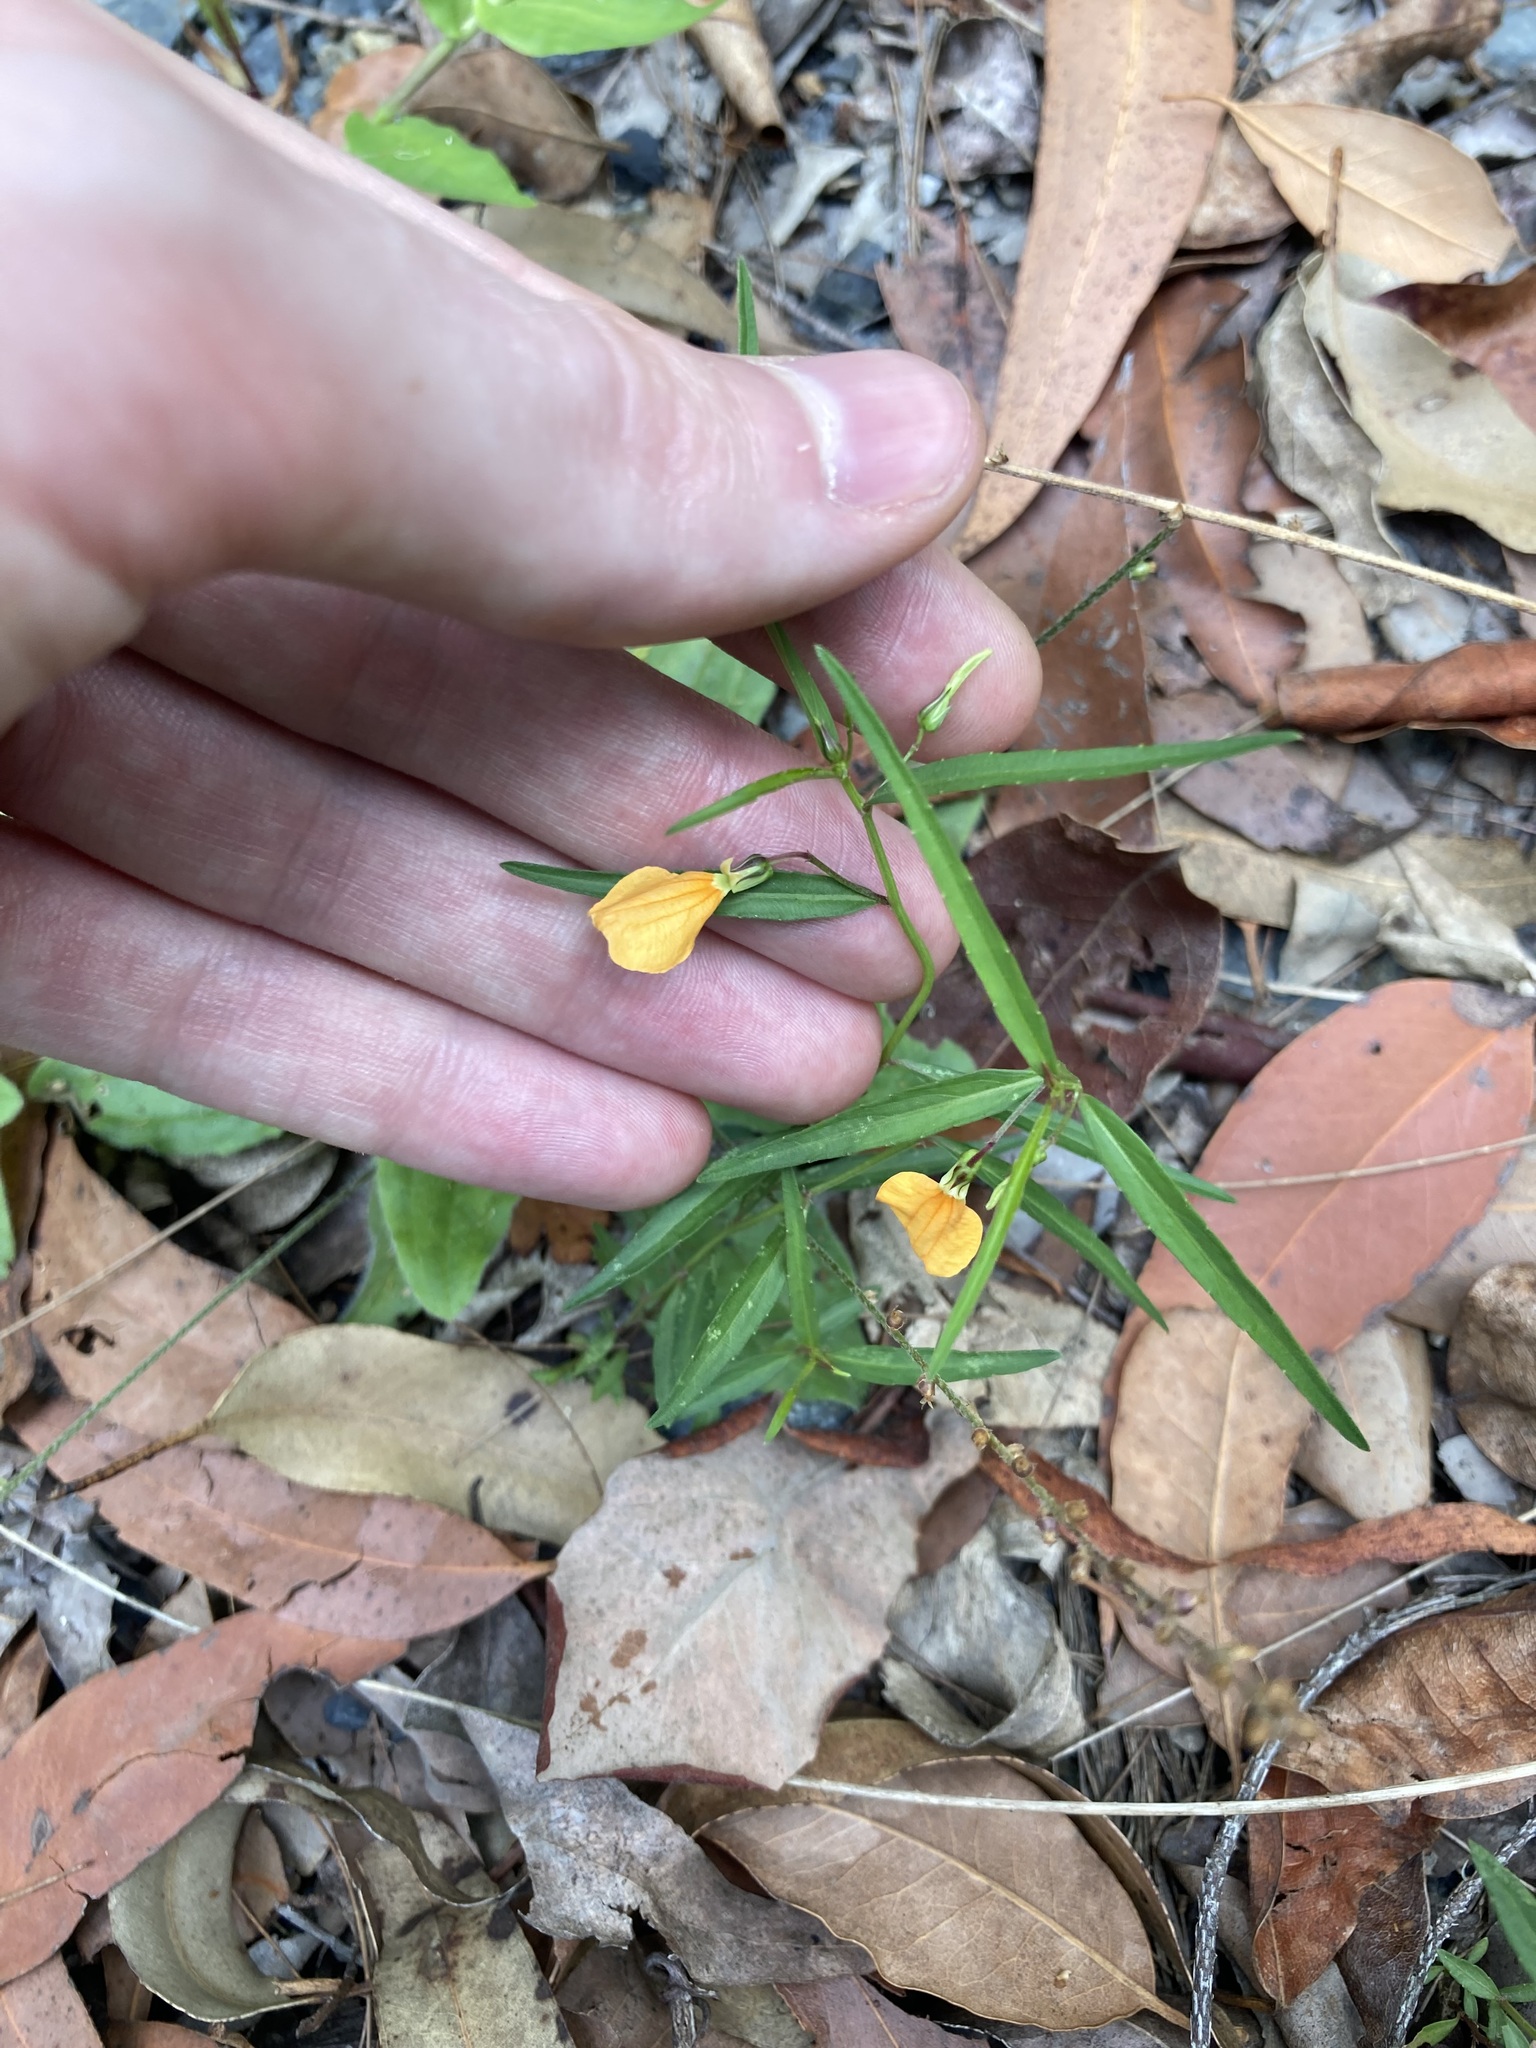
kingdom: Plantae
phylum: Tracheophyta
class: Magnoliopsida
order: Malpighiales
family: Violaceae
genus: Pigea
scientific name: Pigea stellarioides
